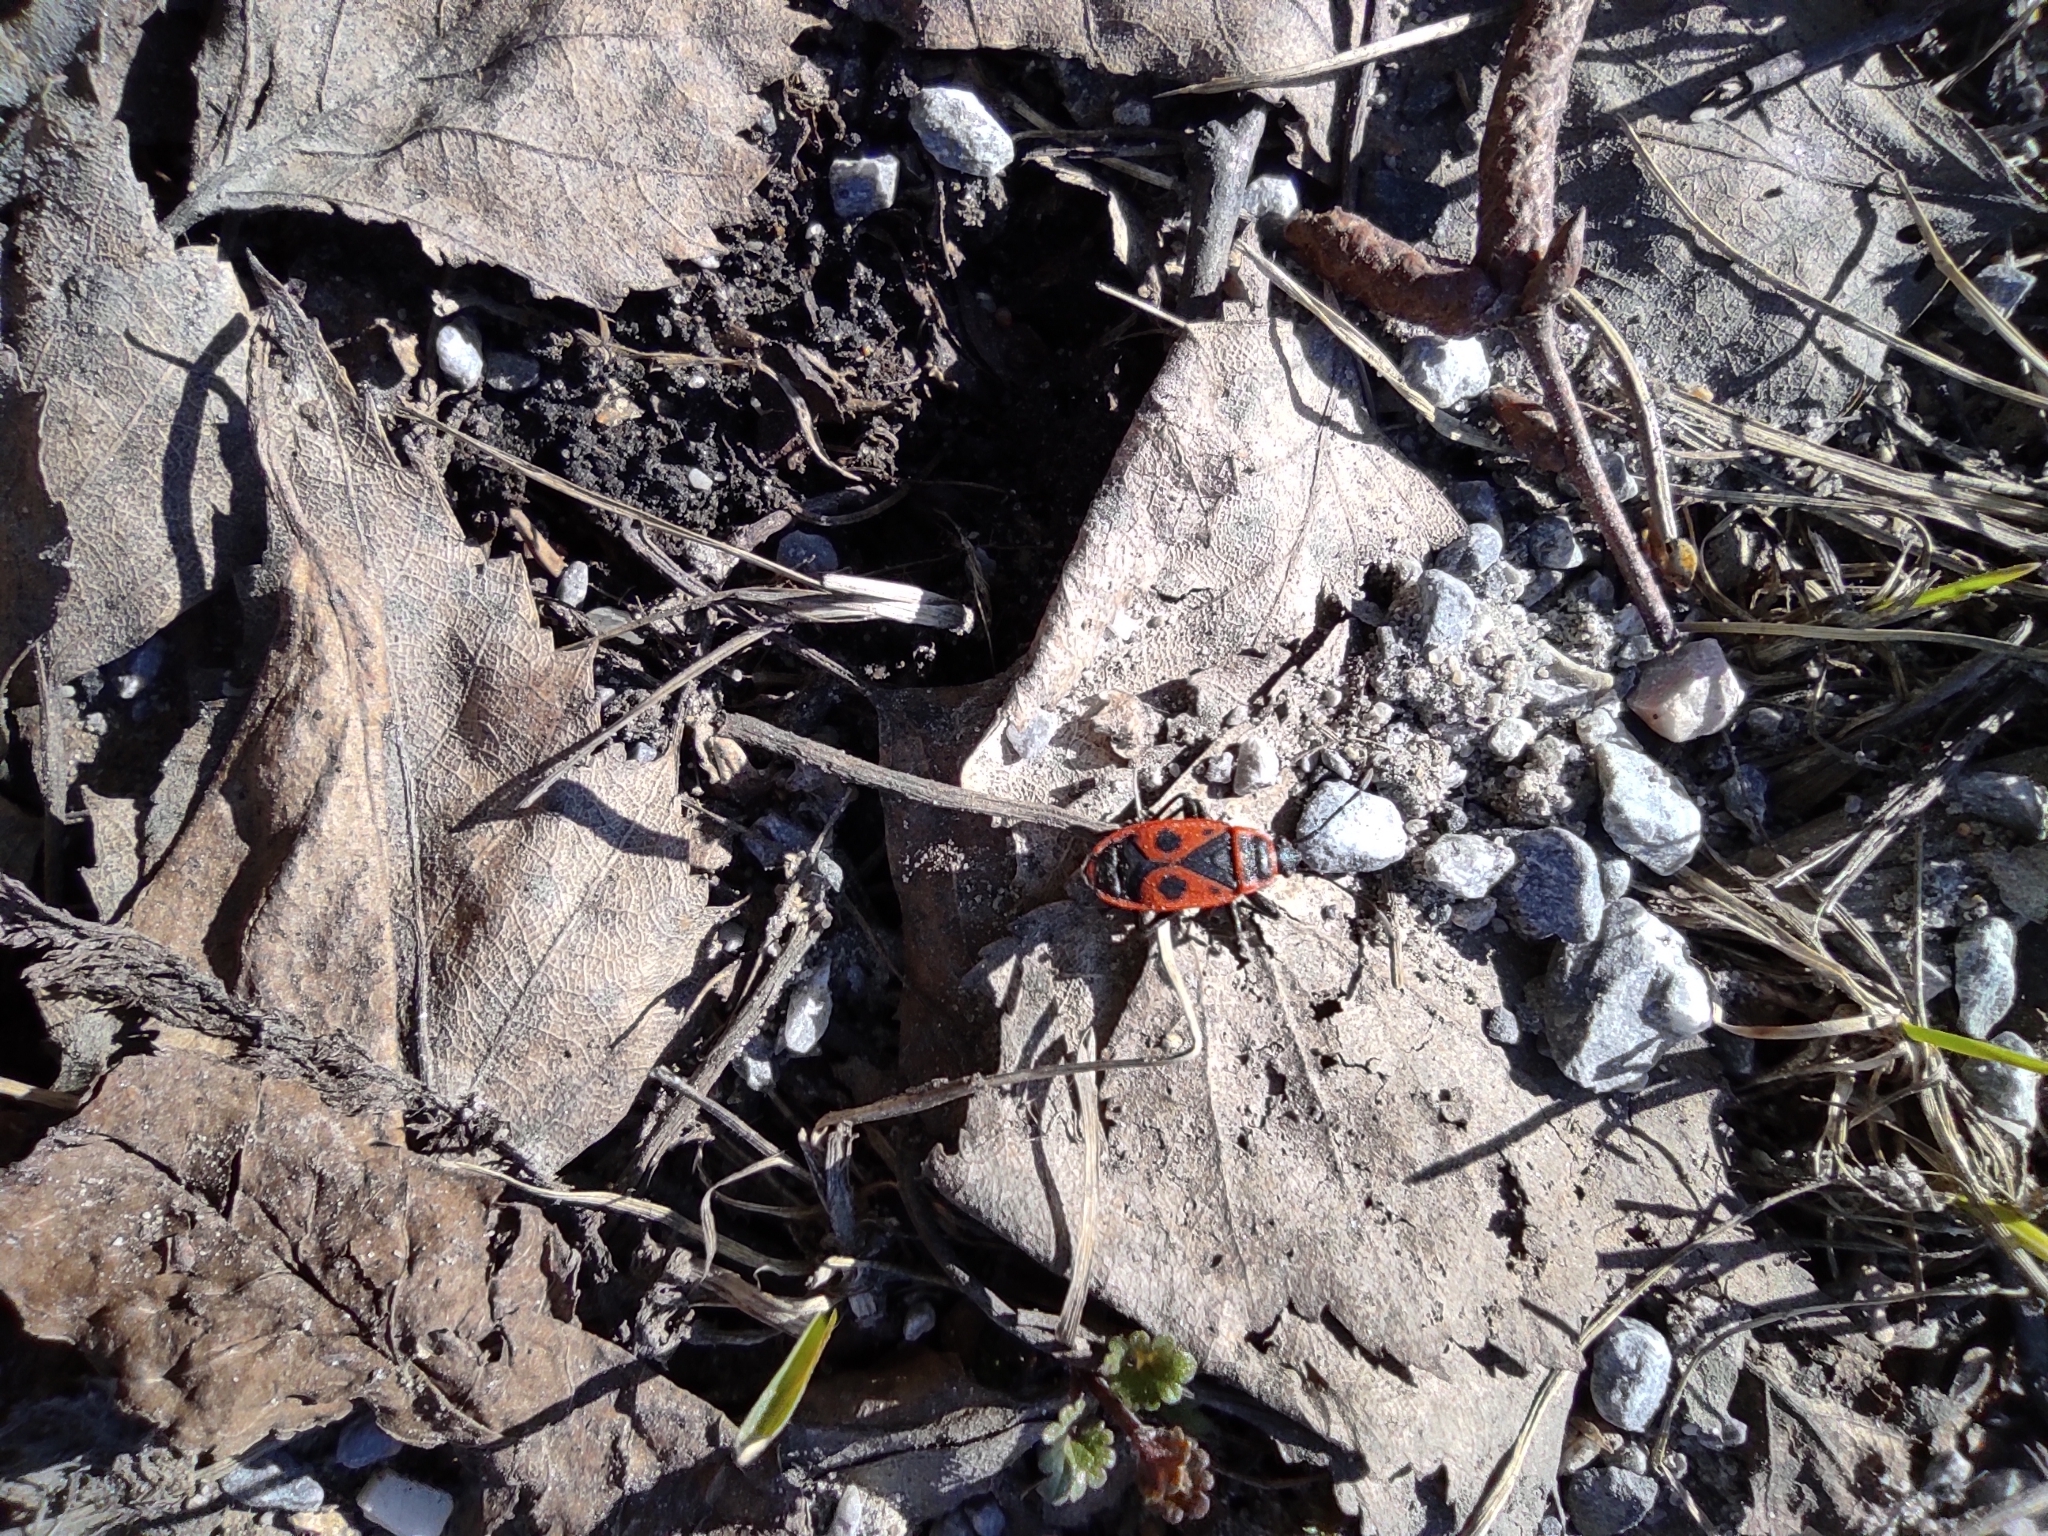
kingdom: Animalia
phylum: Arthropoda
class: Insecta
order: Hemiptera
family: Pyrrhocoridae
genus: Pyrrhocoris
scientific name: Pyrrhocoris apterus
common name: Firebug
